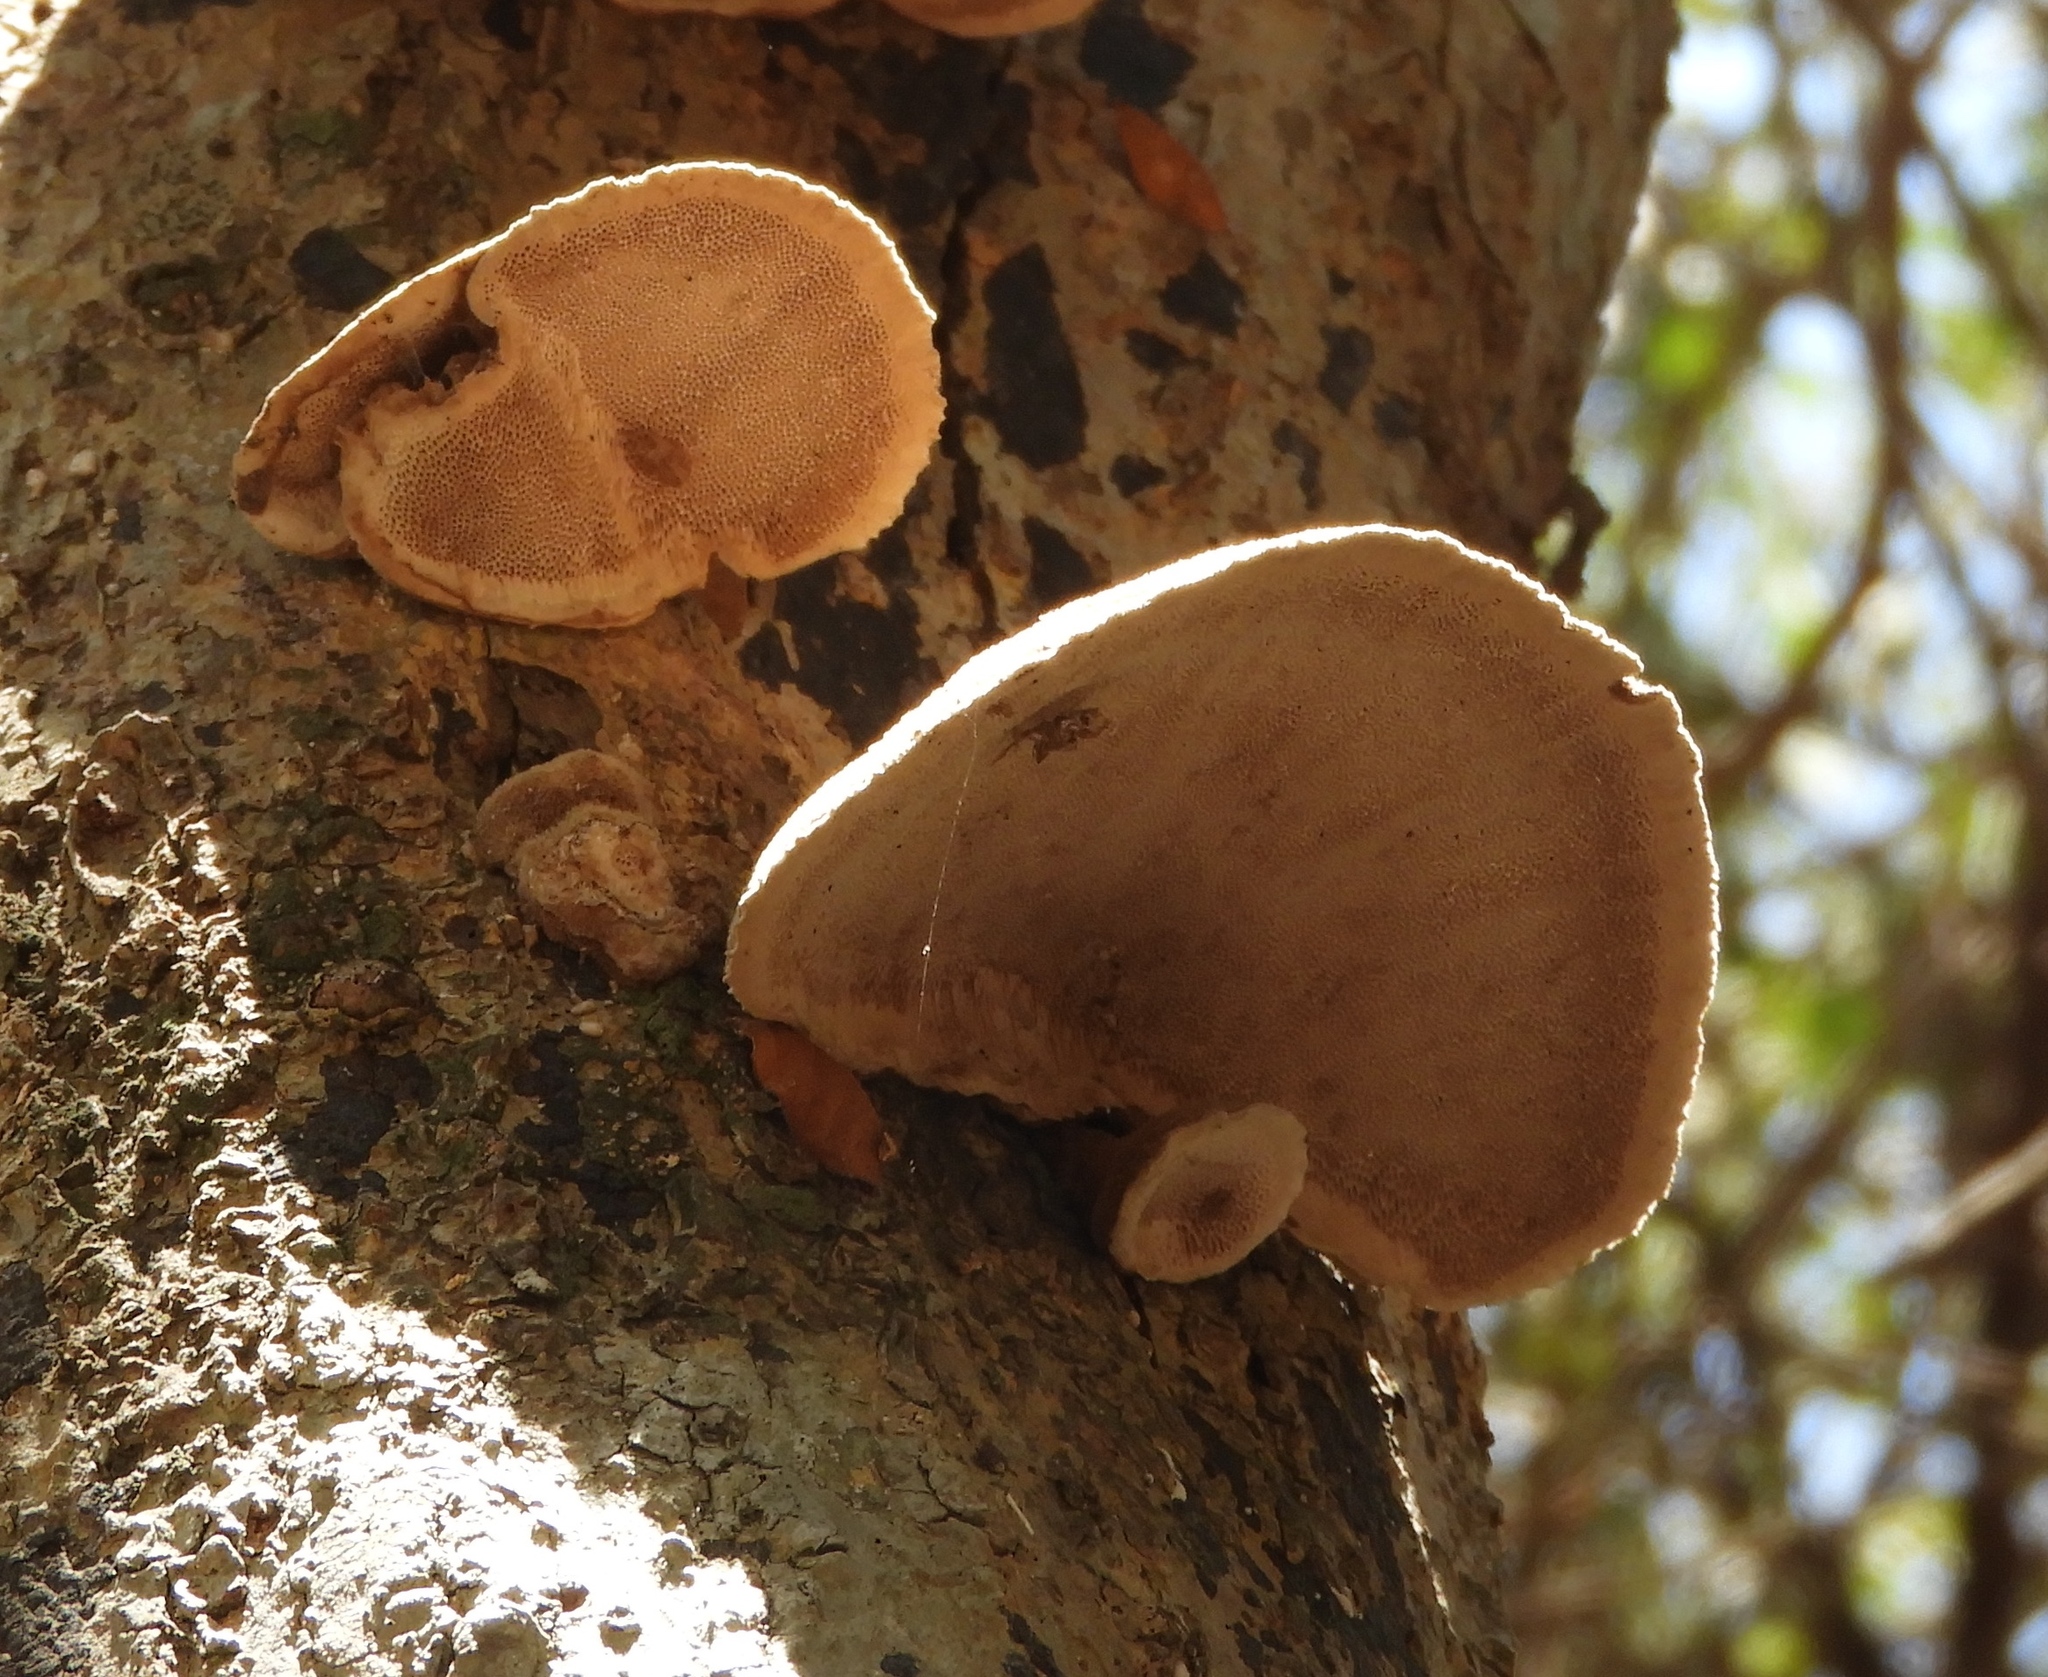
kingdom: Fungi
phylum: Basidiomycota
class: Agaricomycetes
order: Hymenochaetales
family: Hymenochaetaceae
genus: Xanthoporia
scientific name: Xanthoporia radiata
